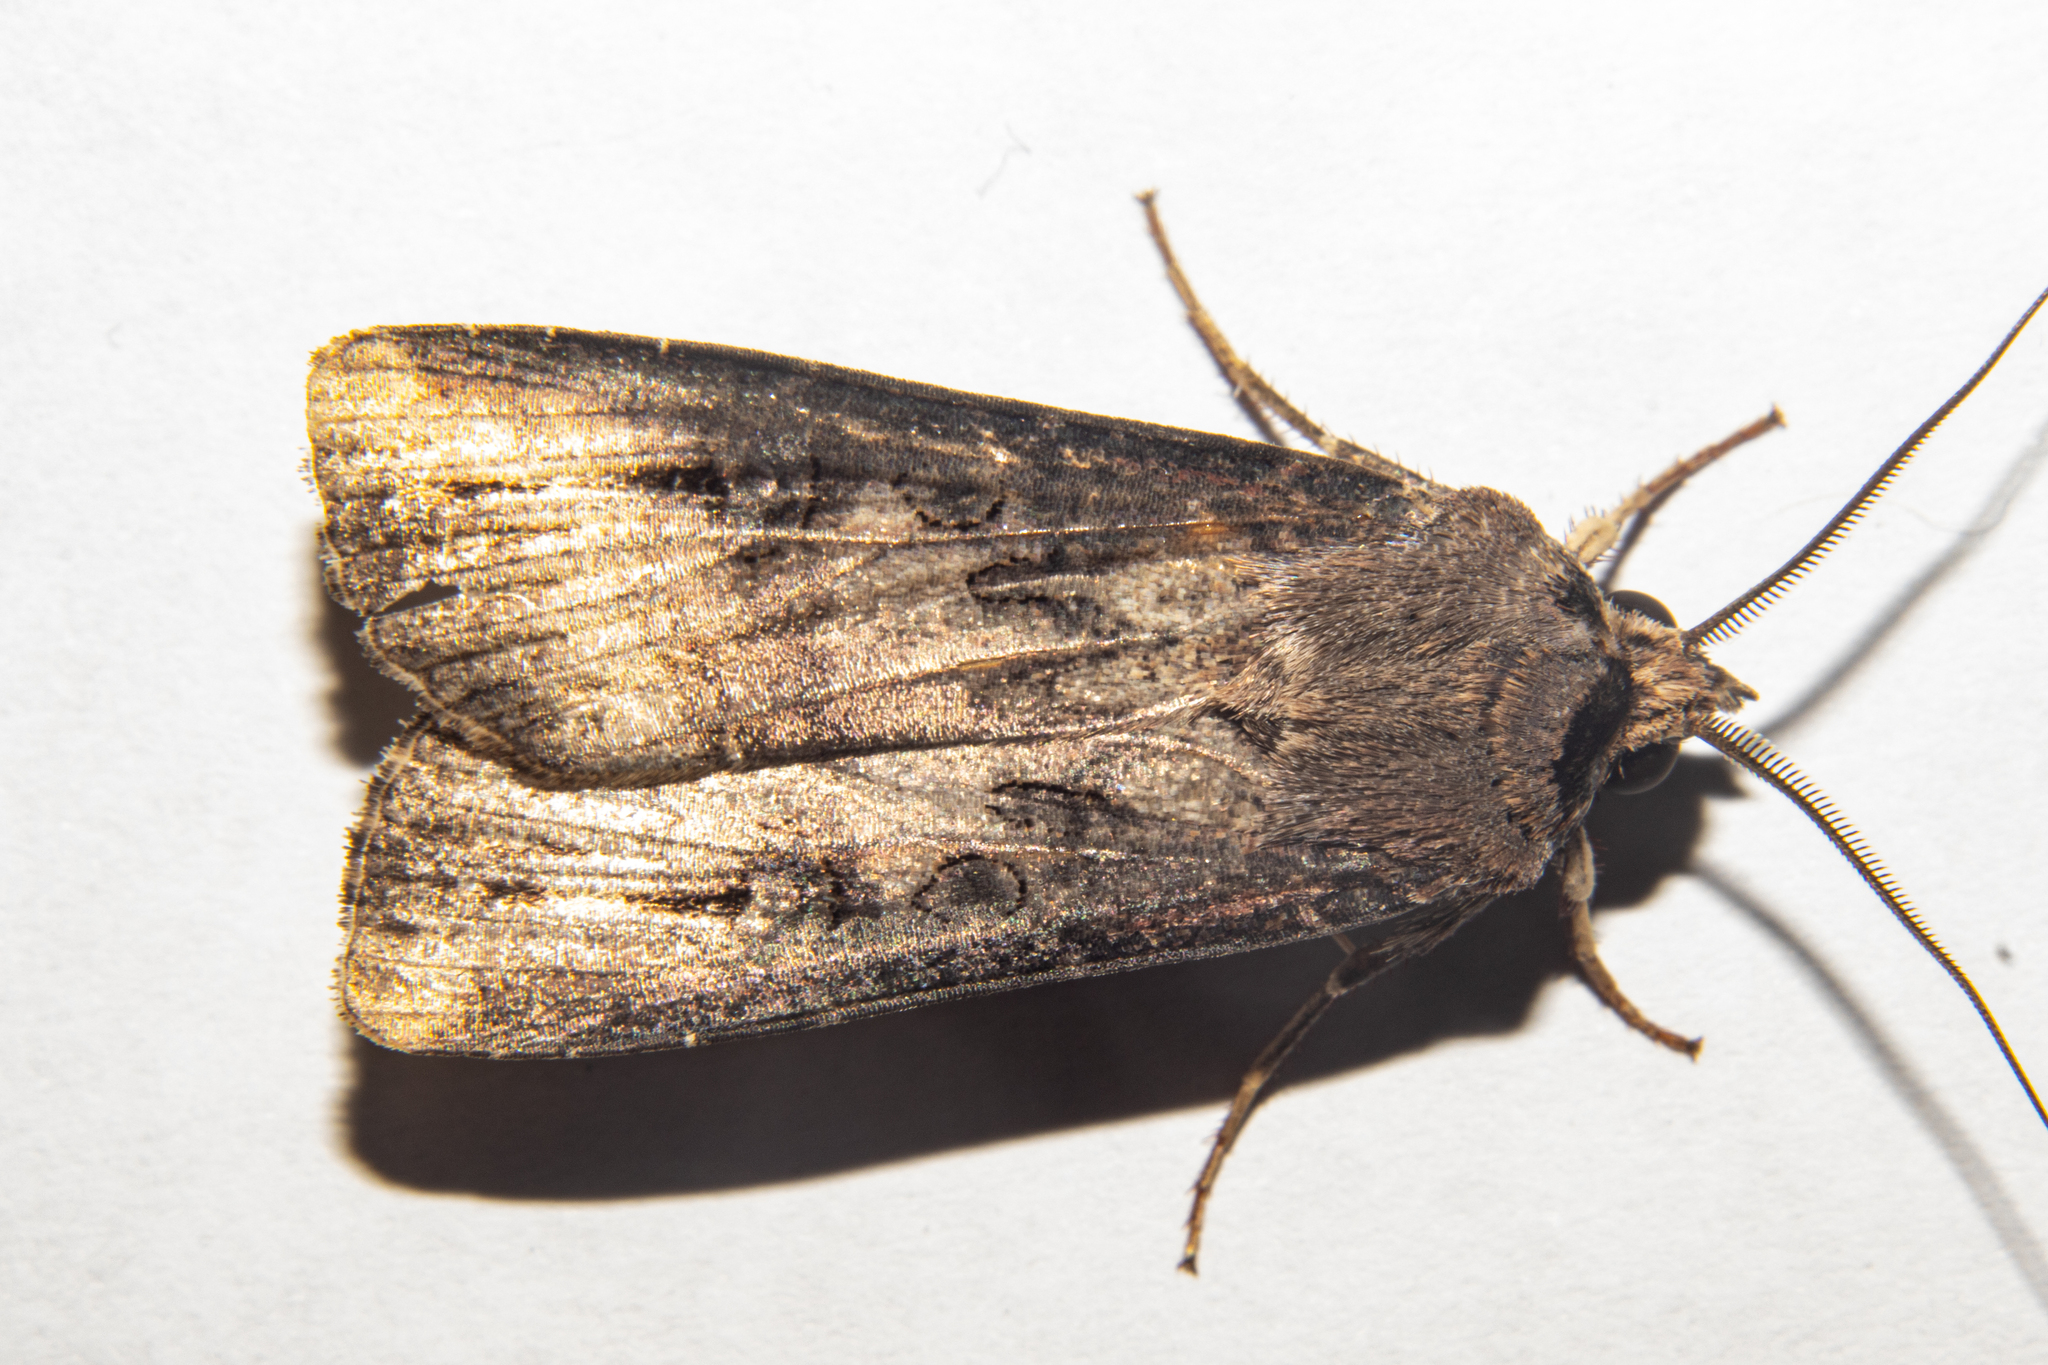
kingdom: Animalia
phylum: Arthropoda
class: Insecta
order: Lepidoptera
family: Noctuidae
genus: Agrotis
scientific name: Agrotis ipsilon
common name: Dark sword-grass
